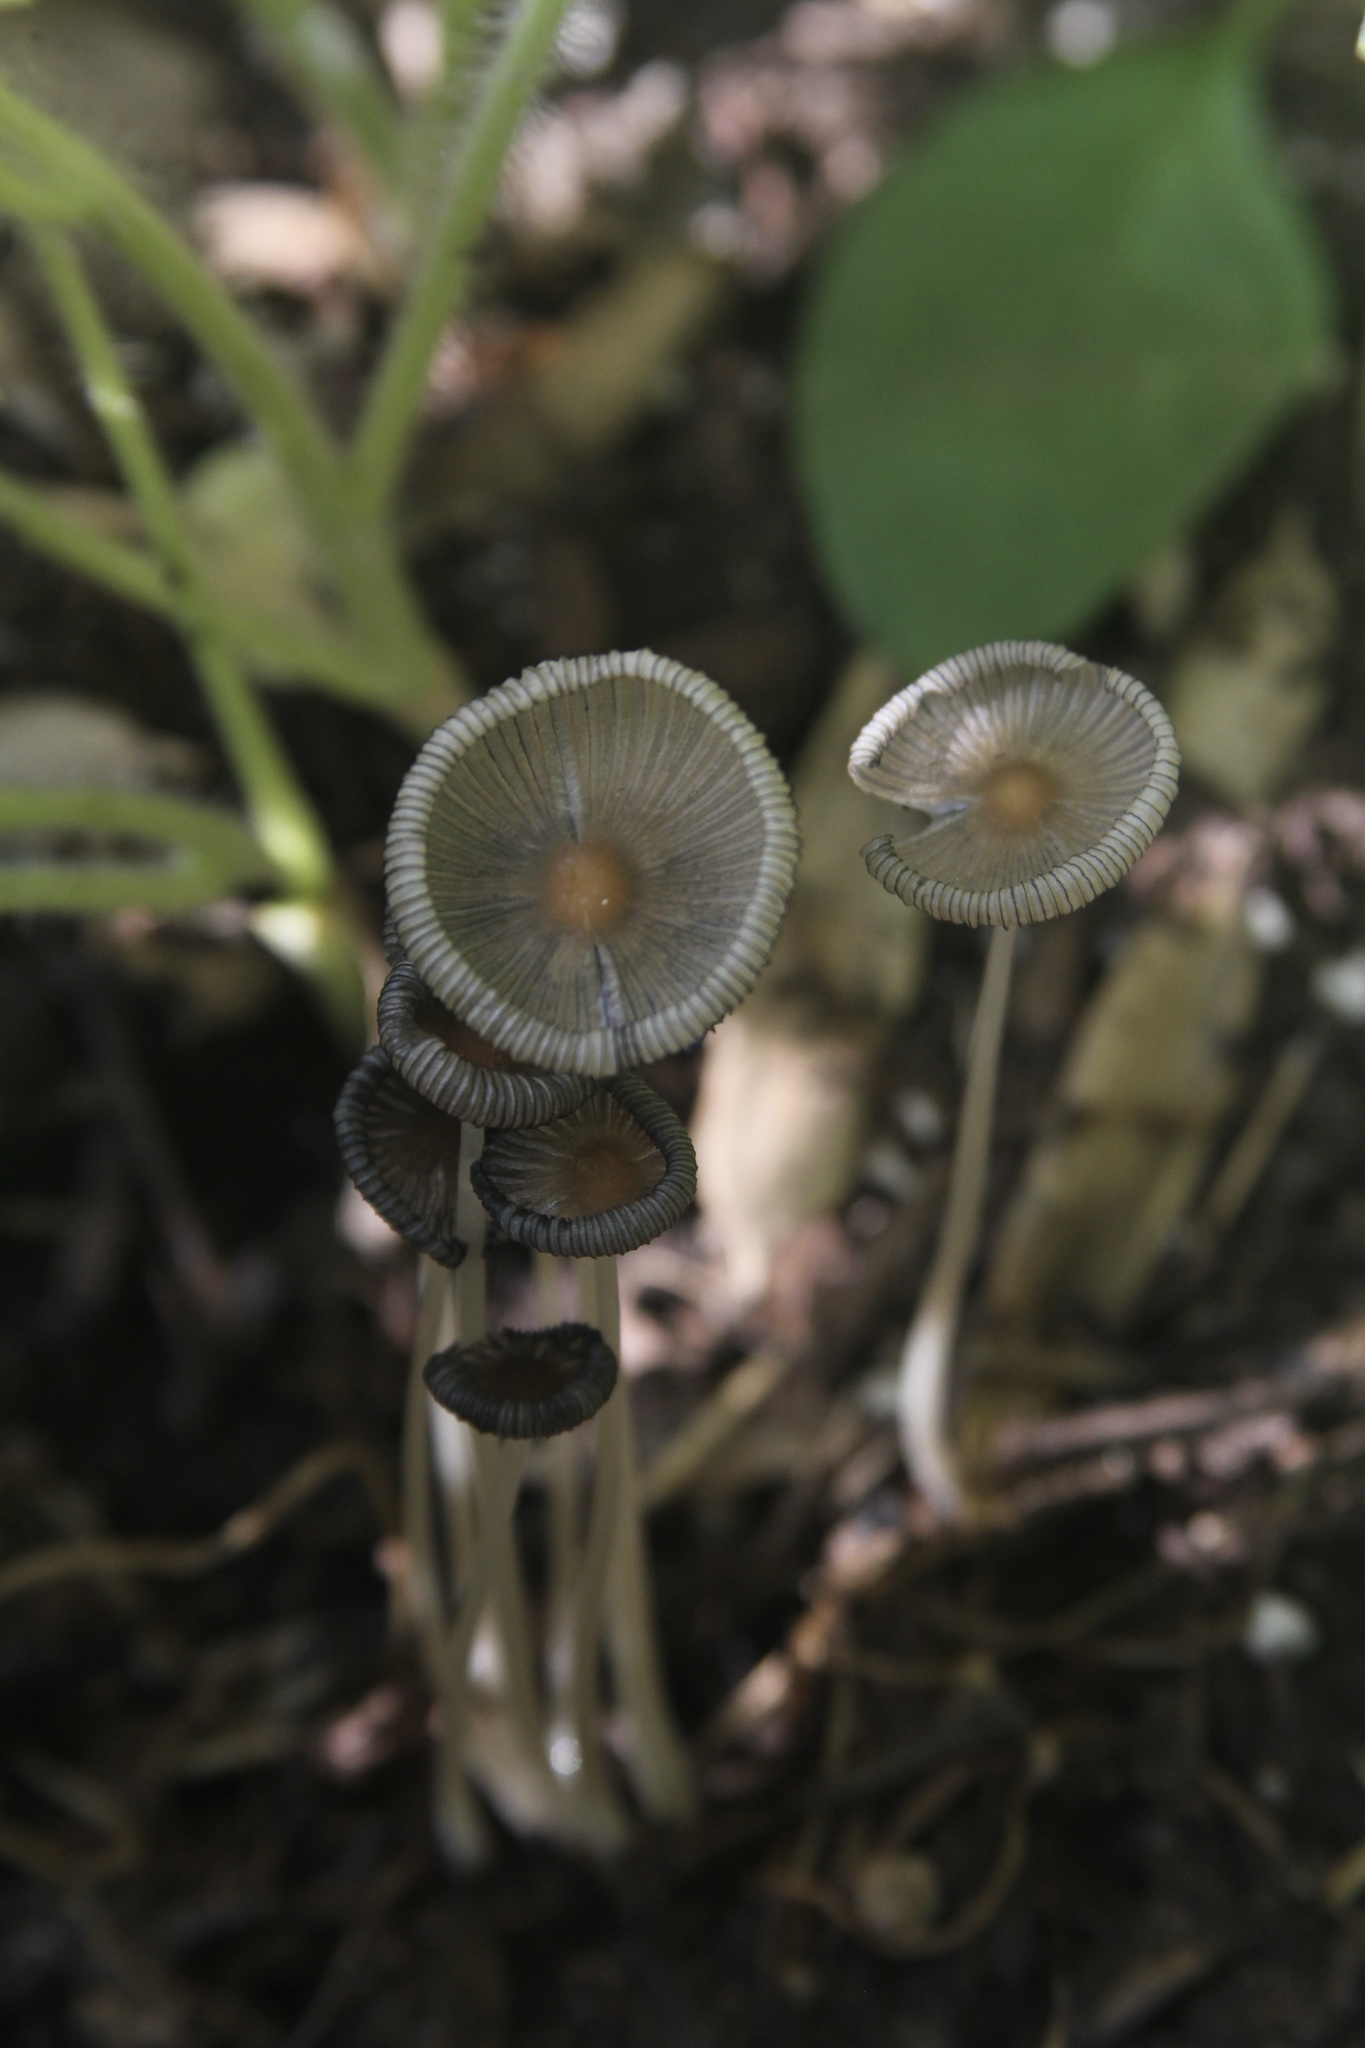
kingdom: Fungi
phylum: Basidiomycota
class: Agaricomycetes
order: Agaricales
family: Psathyrellaceae
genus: Coprinopsis
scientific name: Coprinopsis lagopus
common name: Hare'sfoot inkcap
